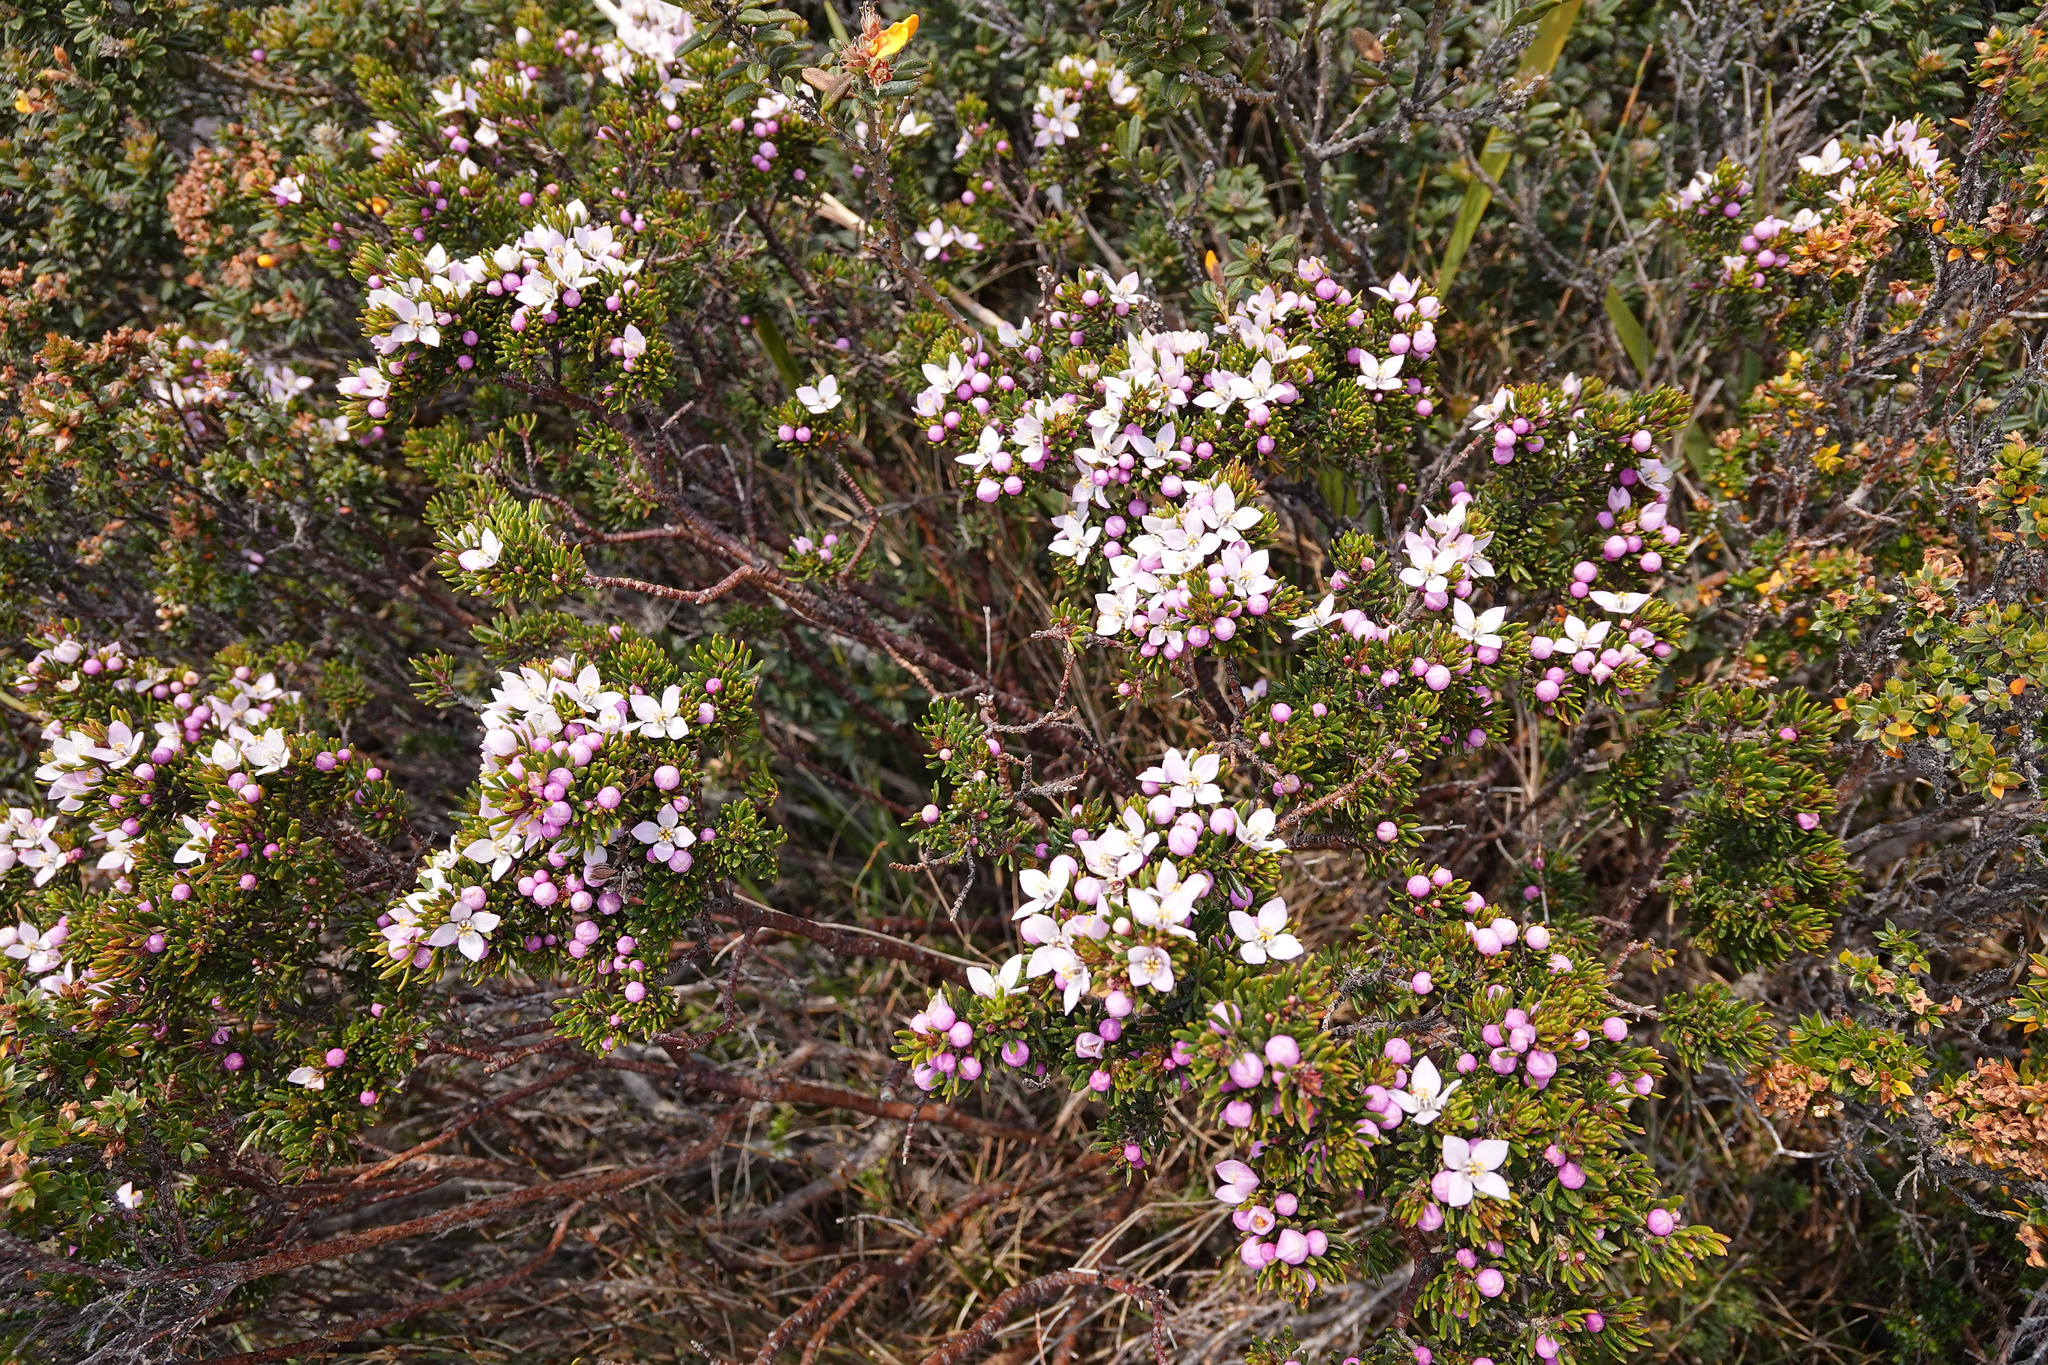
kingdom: Plantae
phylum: Tracheophyta
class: Magnoliopsida
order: Sapindales
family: Rutaceae
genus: Boronia
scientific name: Boronia citriodora
